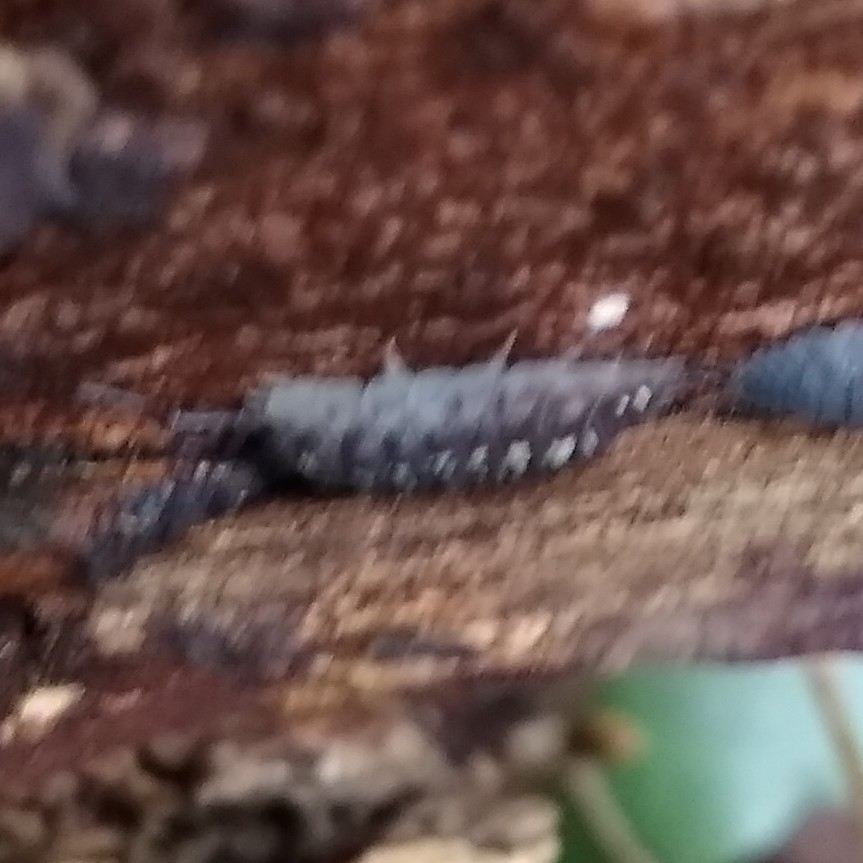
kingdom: Animalia
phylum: Arthropoda
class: Malacostraca
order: Isopoda
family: Oniscidae
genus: Oniscus
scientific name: Oniscus asellus
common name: Common shiny woodlouse
